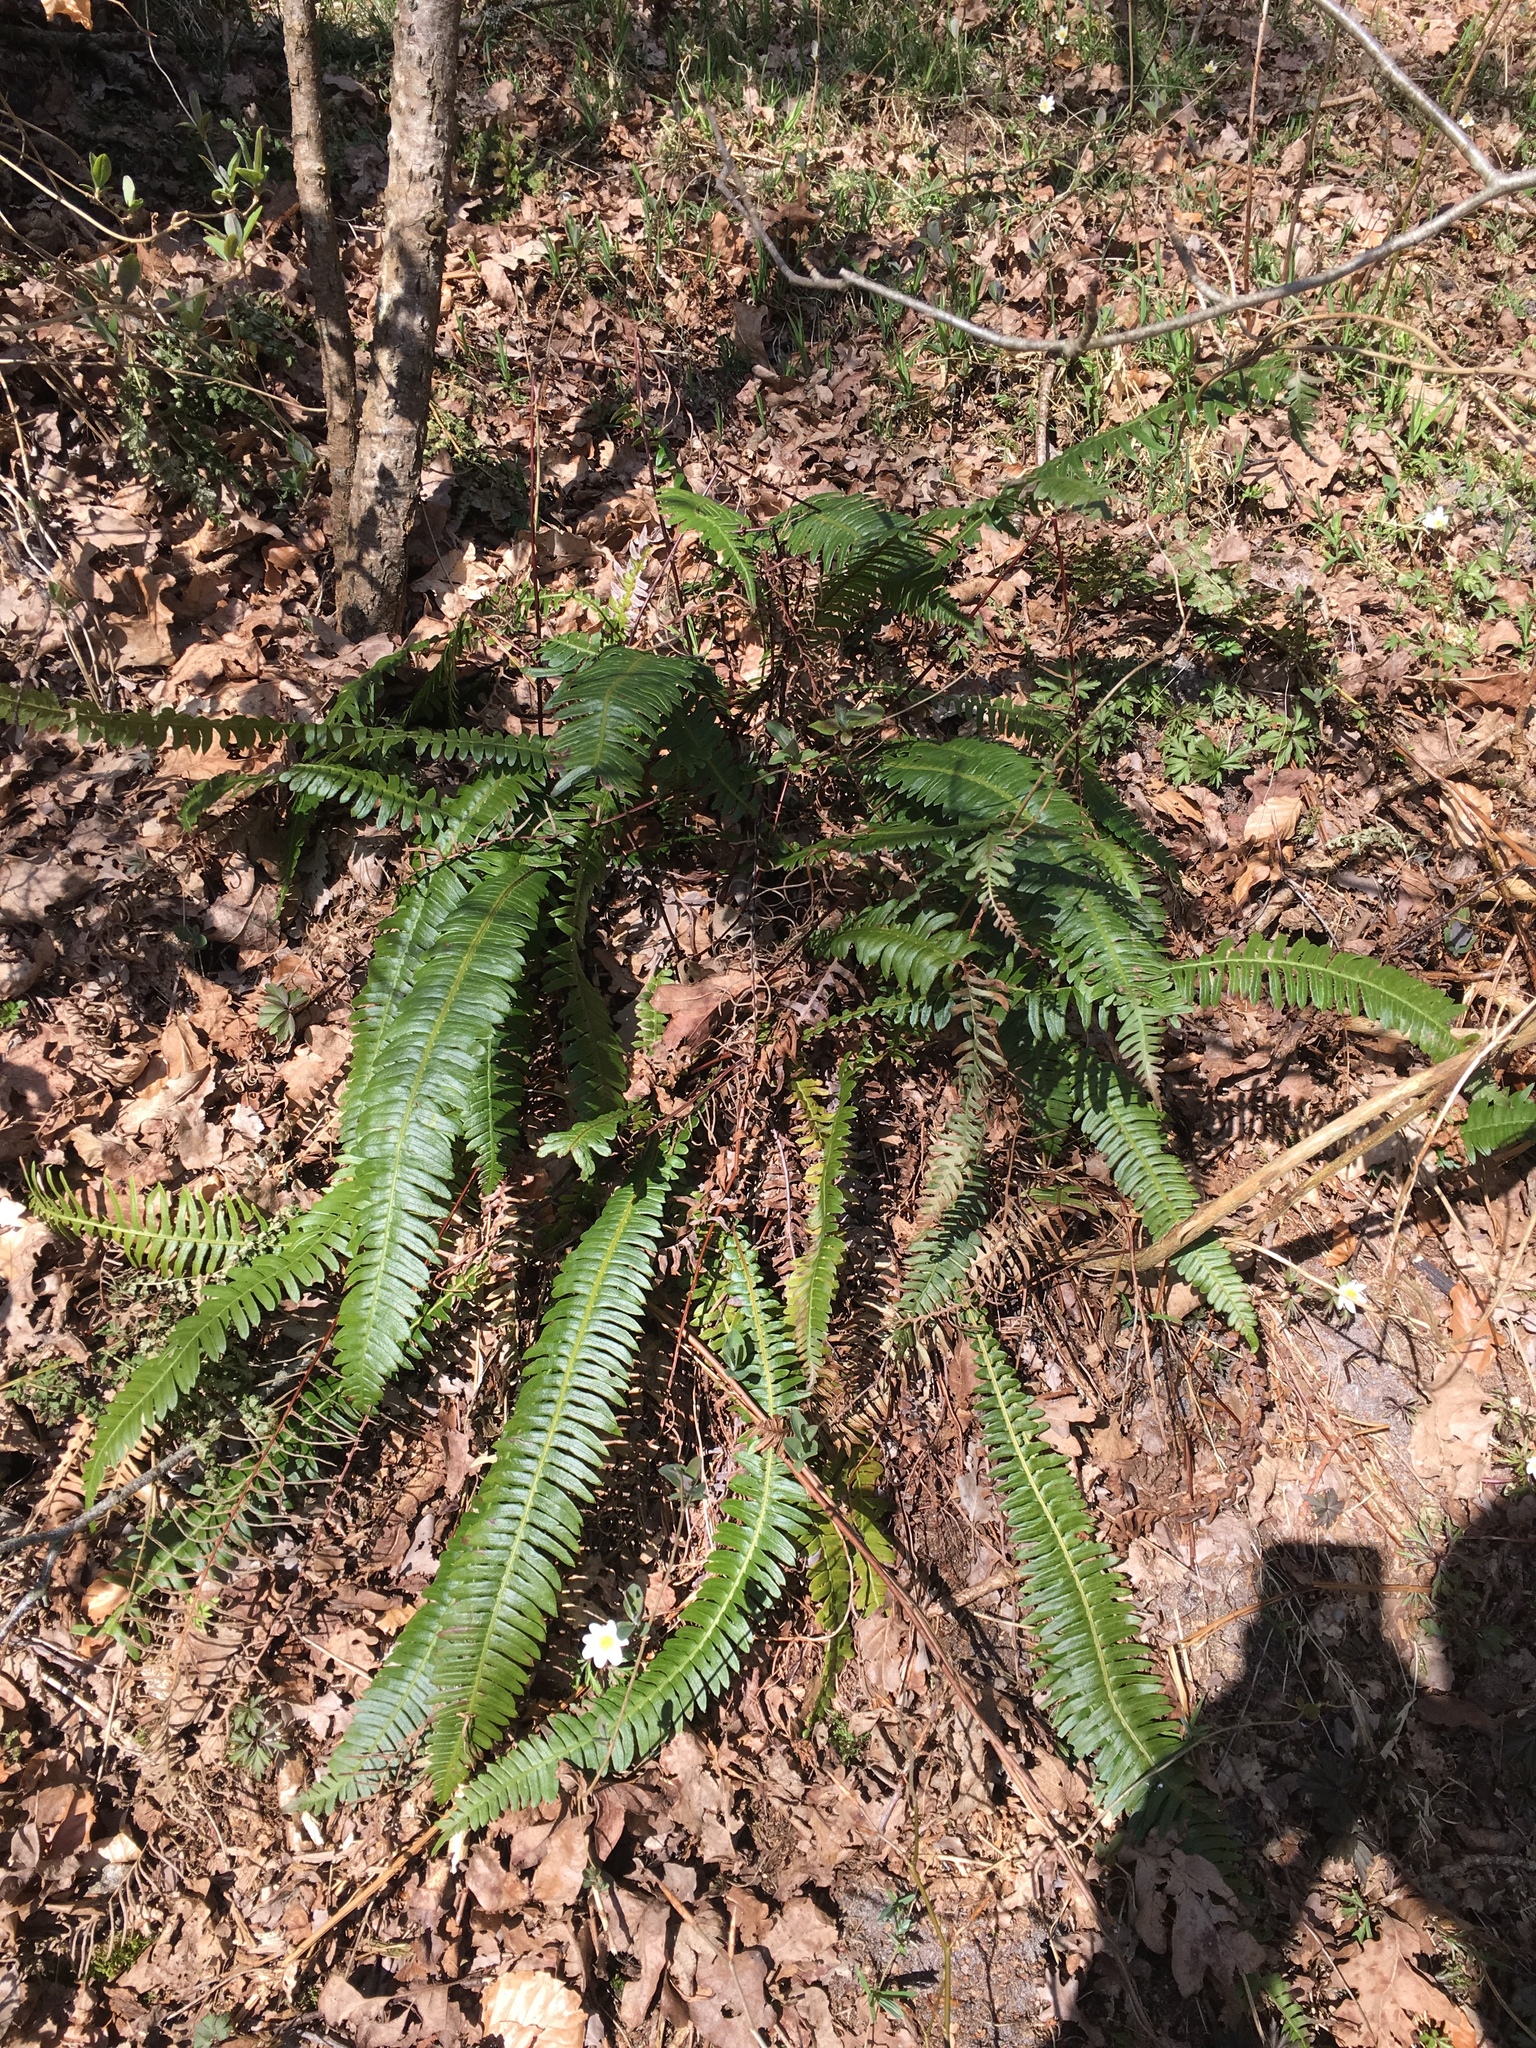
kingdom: Plantae
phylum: Tracheophyta
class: Polypodiopsida
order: Polypodiales
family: Blechnaceae
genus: Struthiopteris
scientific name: Struthiopteris spicant
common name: Deer fern
